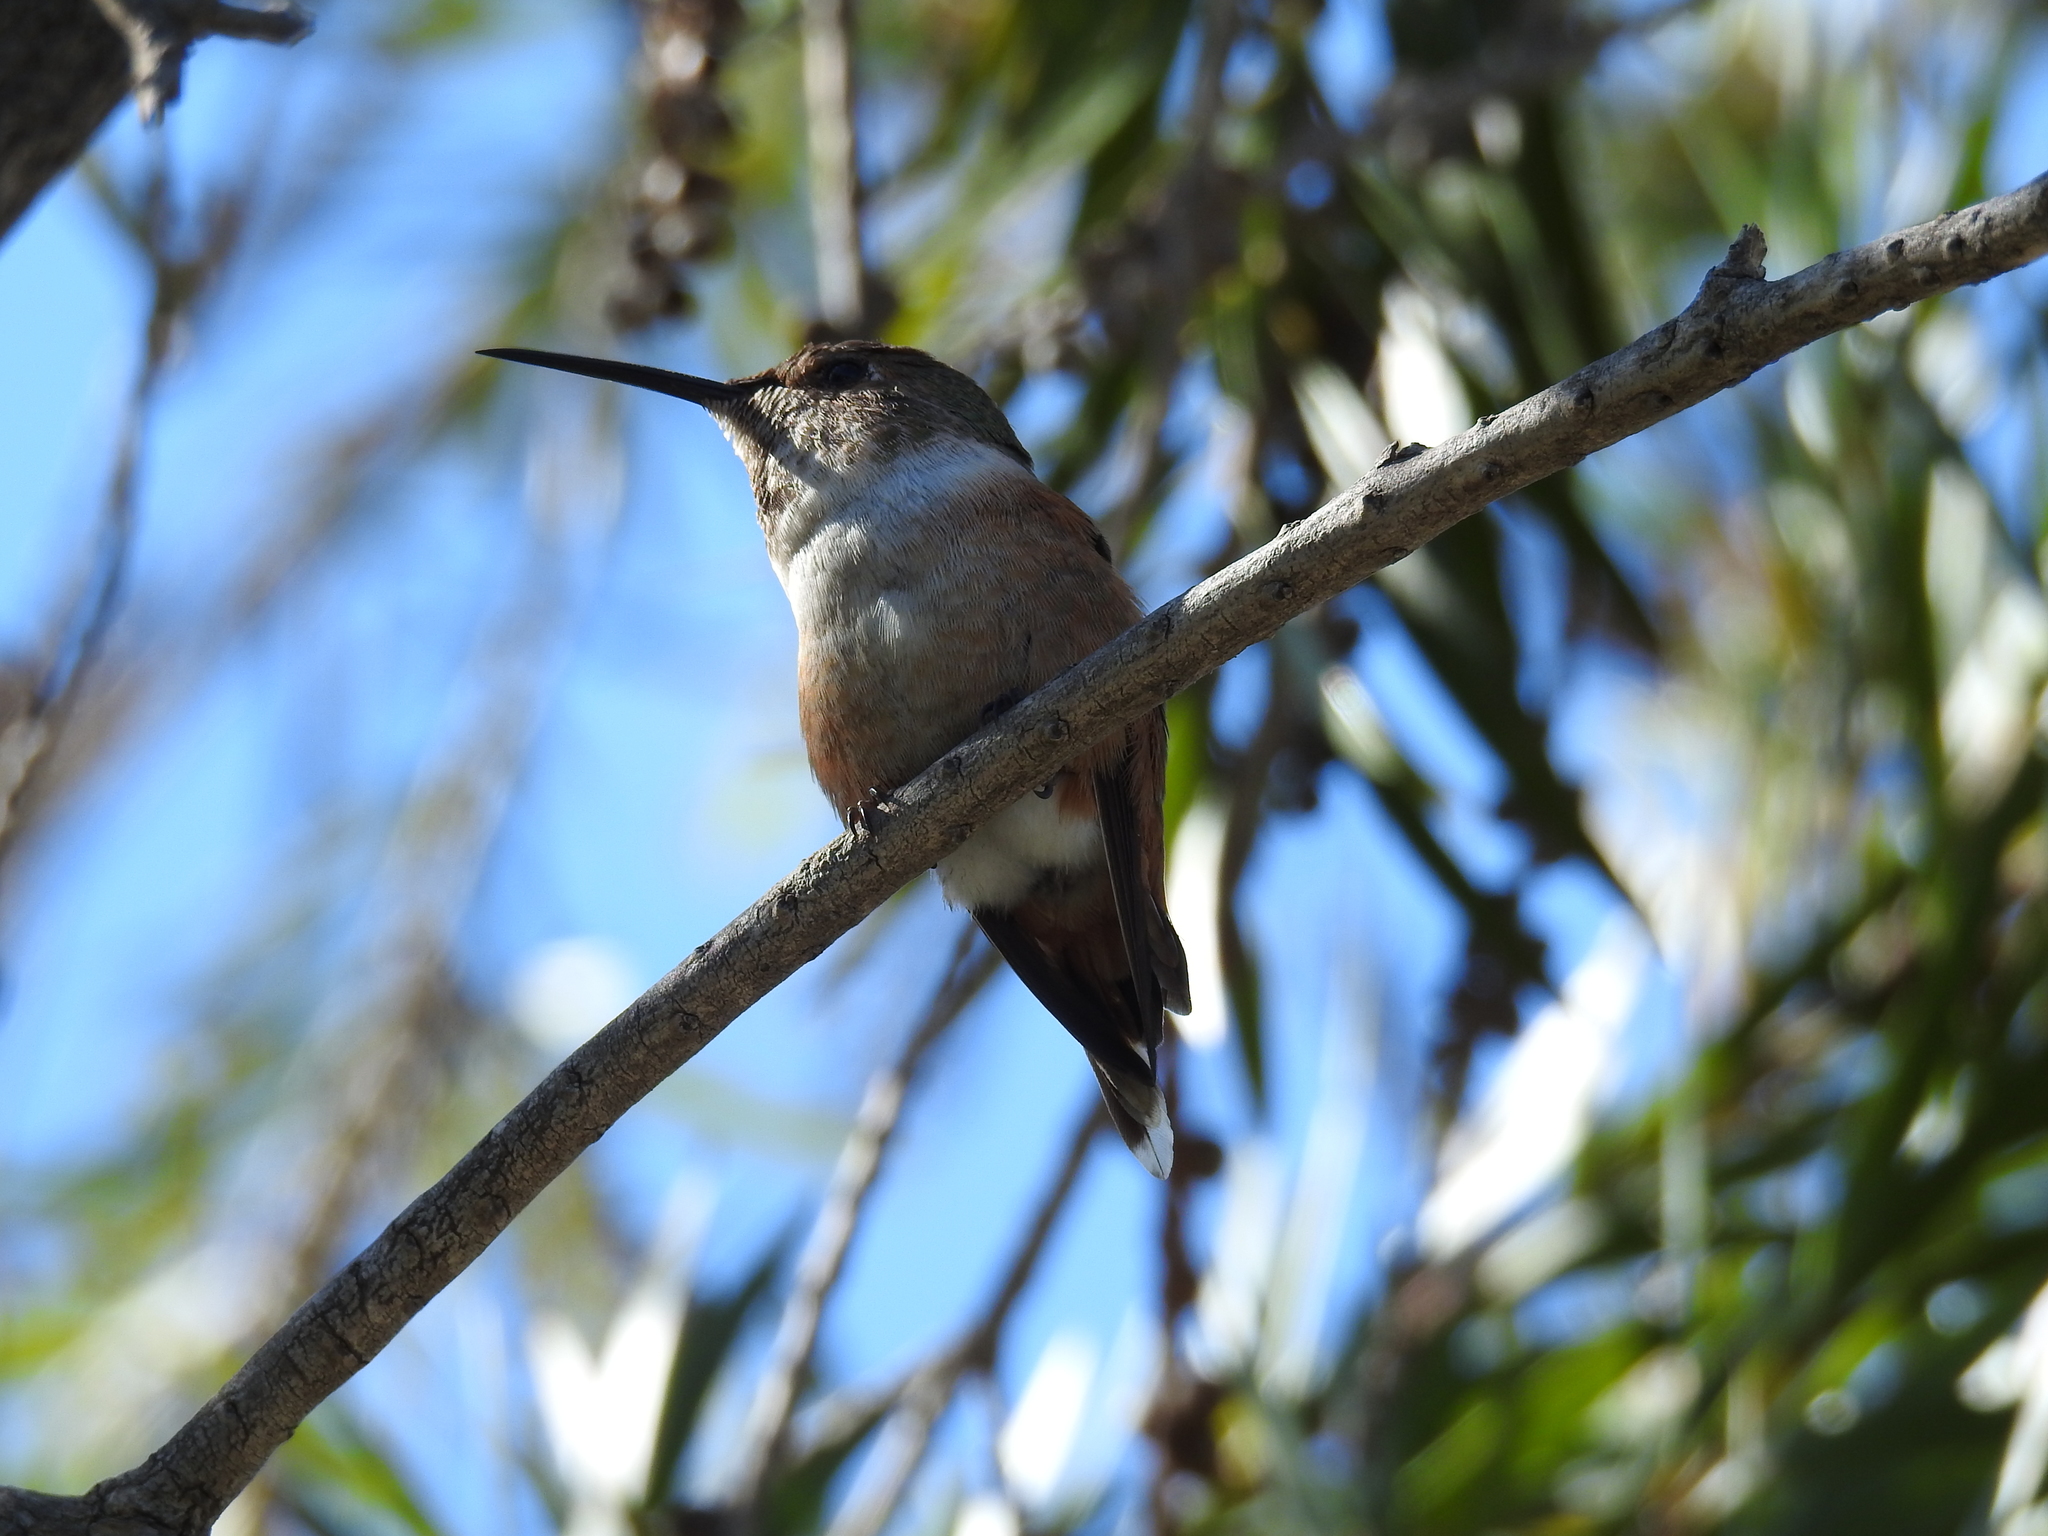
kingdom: Animalia
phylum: Chordata
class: Aves
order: Apodiformes
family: Trochilidae
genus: Selasphorus
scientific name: Selasphorus sasin
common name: Allen's hummingbird
